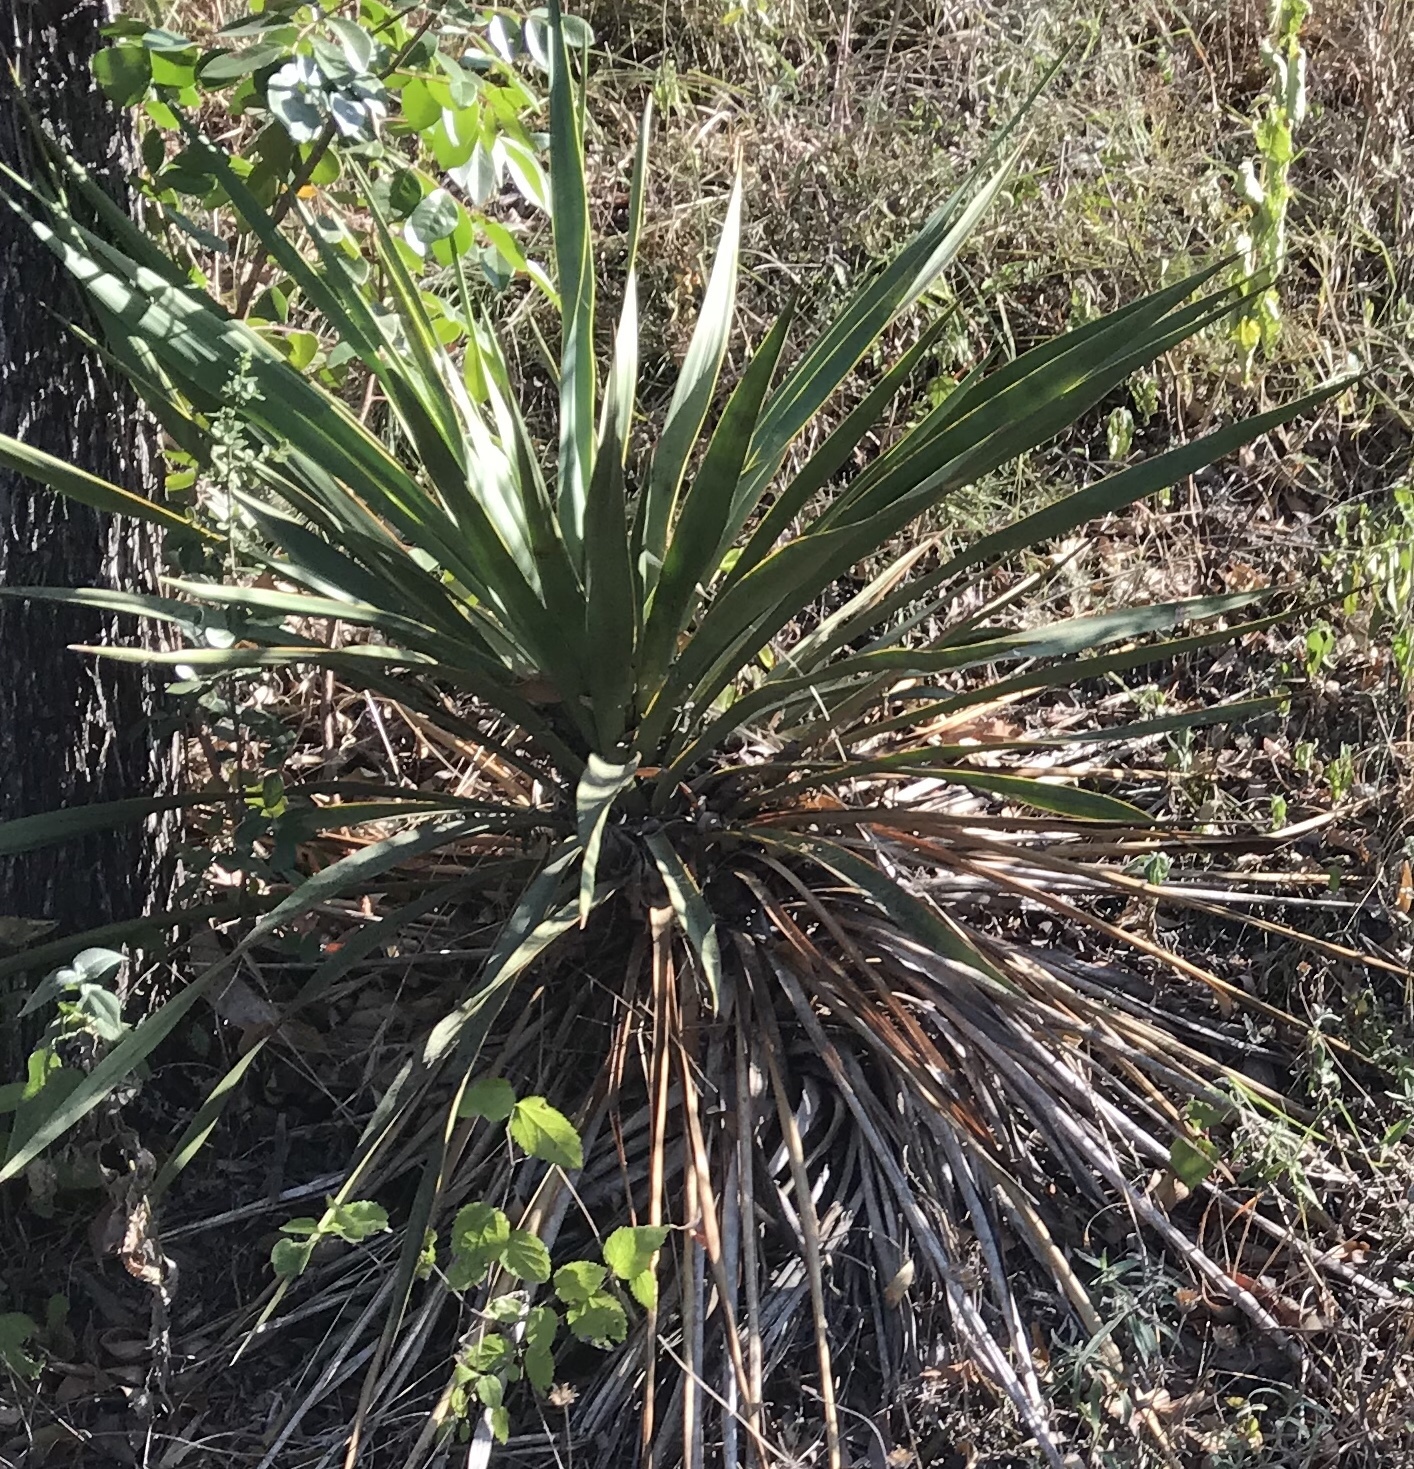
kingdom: Plantae
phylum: Tracheophyta
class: Liliopsida
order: Asparagales
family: Asparagaceae
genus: Yucca
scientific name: Yucca rupicola
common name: Twisted-leaf spanish-dagger
